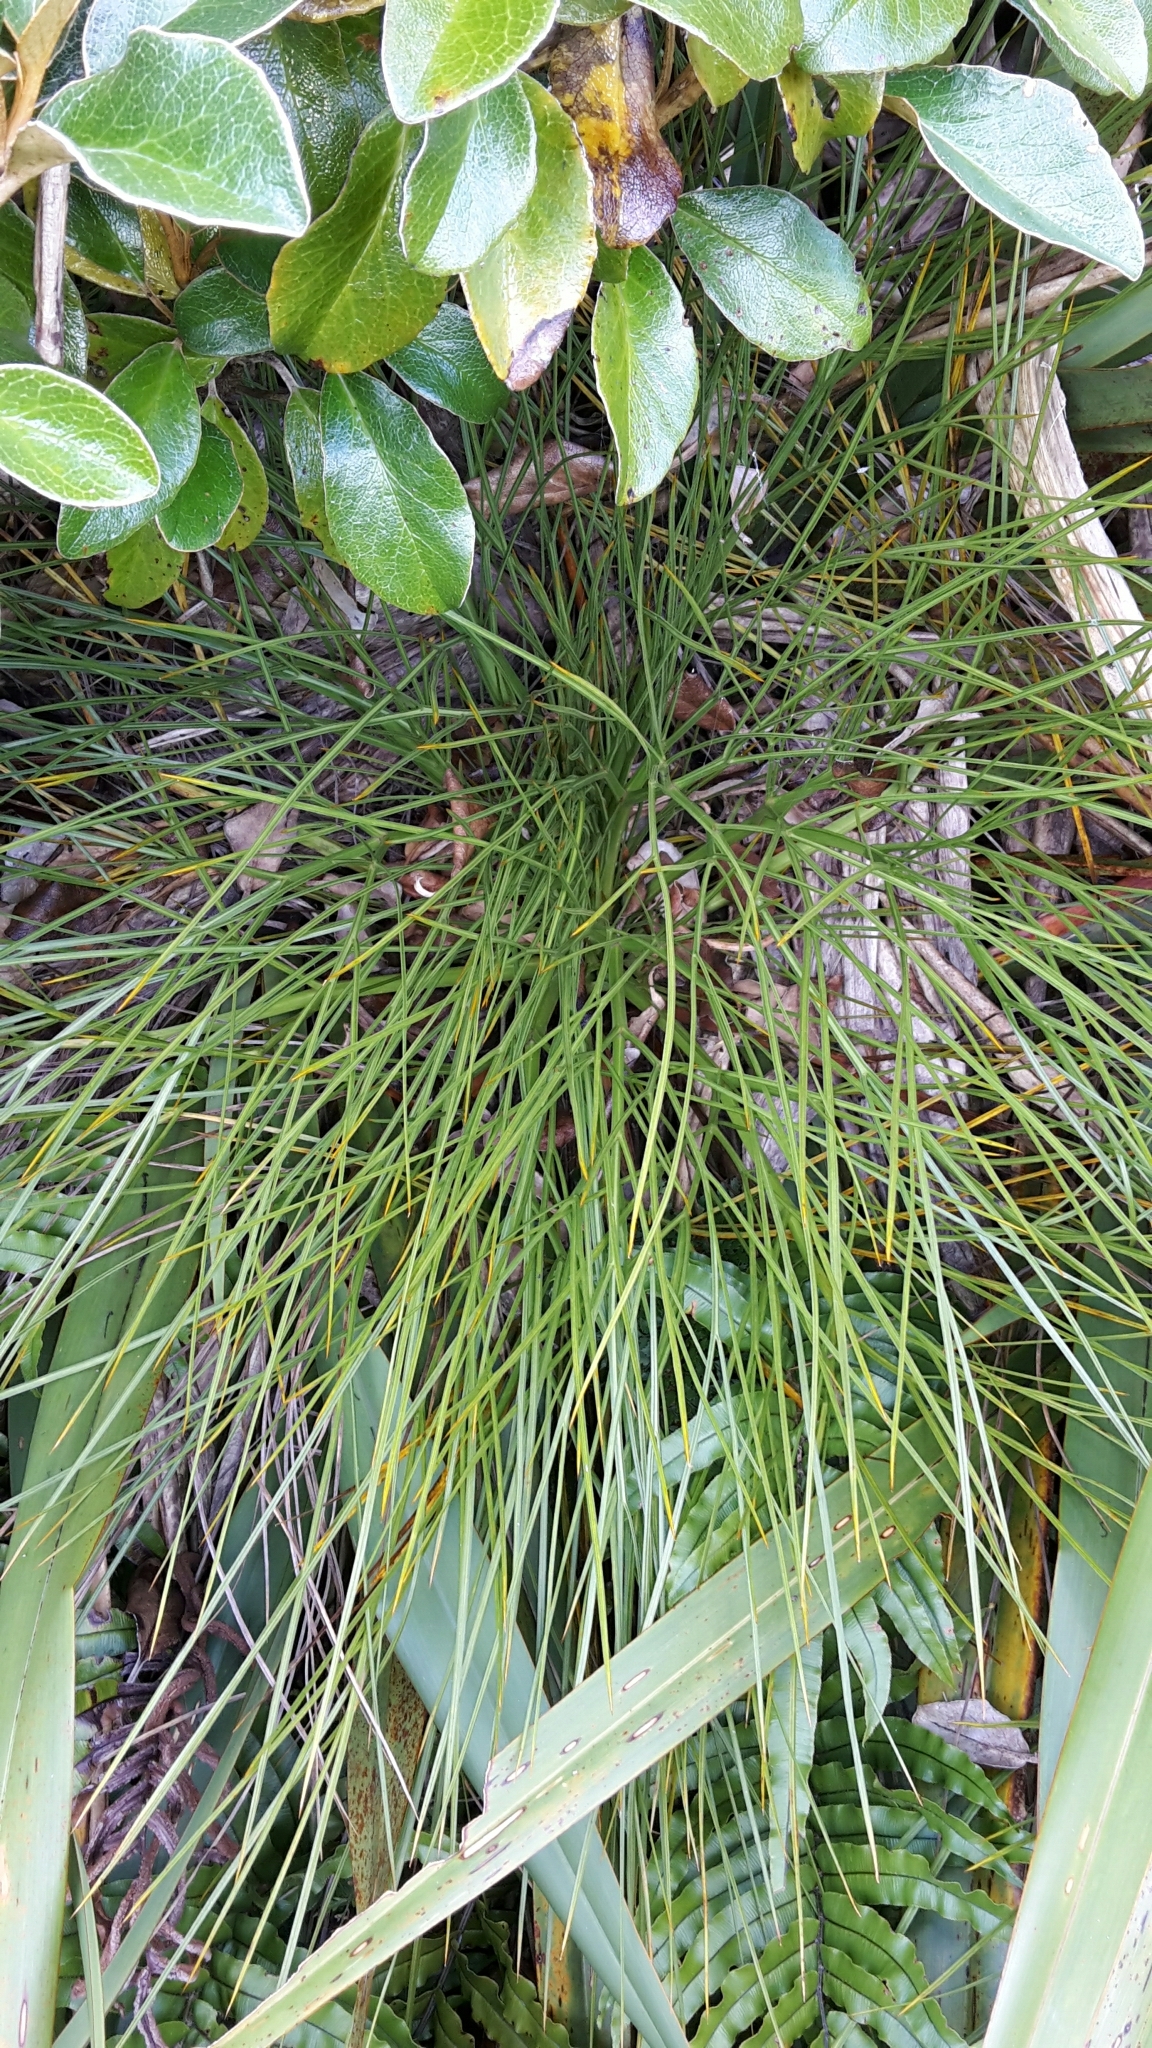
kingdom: Plantae
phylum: Tracheophyta
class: Magnoliopsida
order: Apiales
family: Apiaceae
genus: Aciphylla
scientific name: Aciphylla glaucescens
